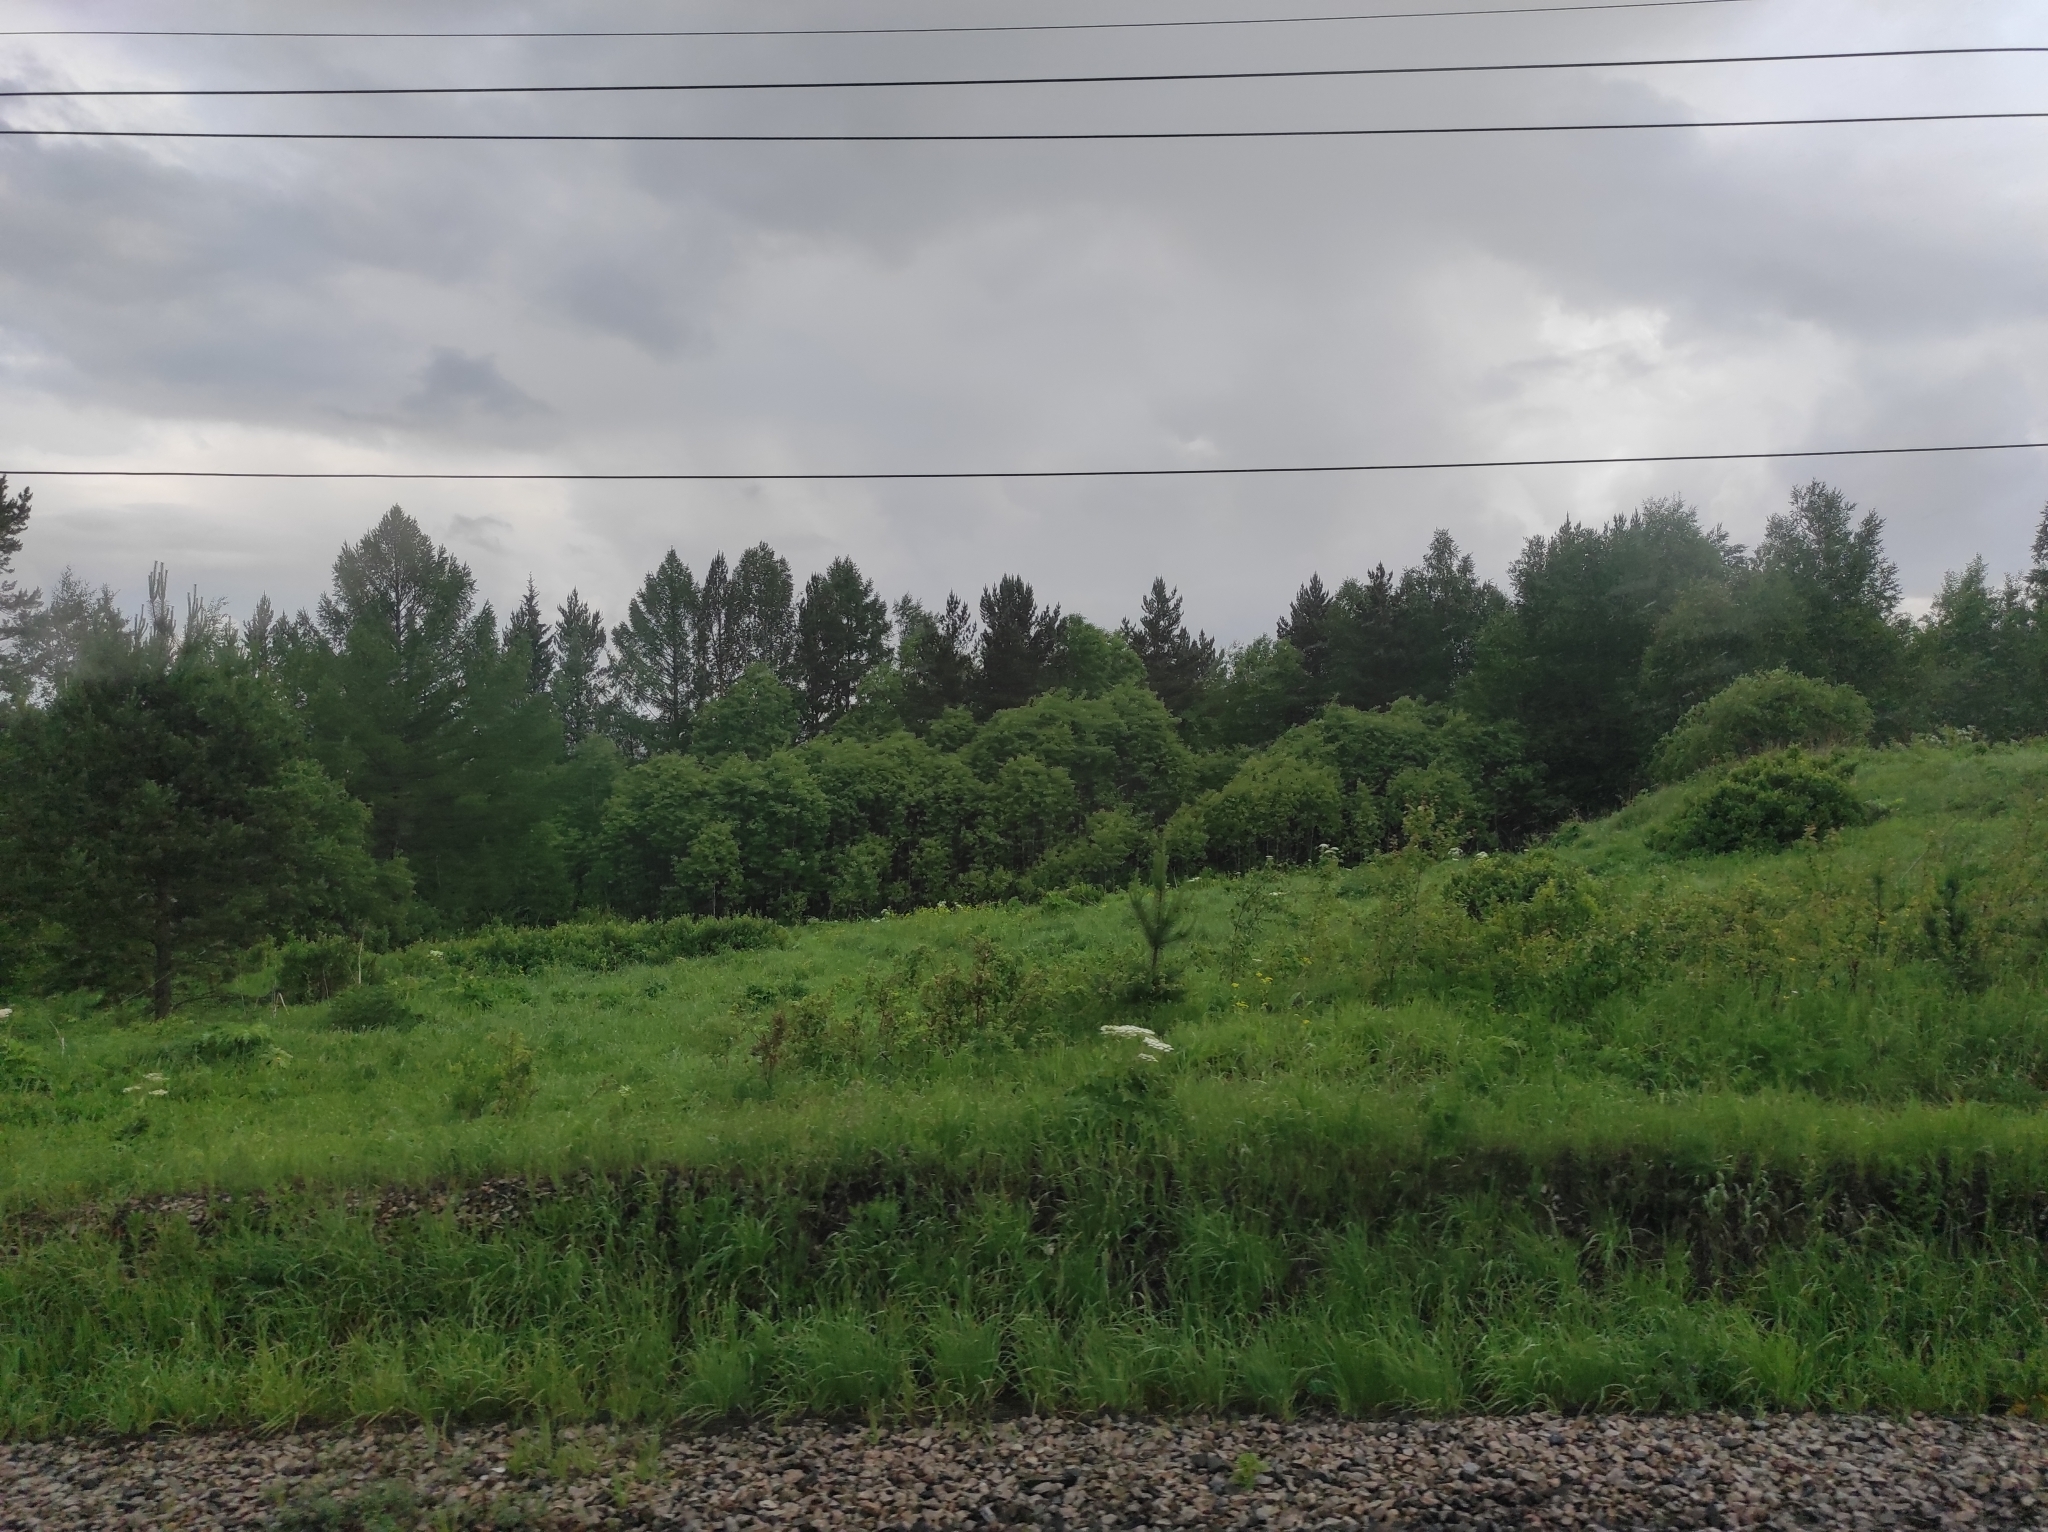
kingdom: Plantae
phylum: Tracheophyta
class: Pinopsida
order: Pinales
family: Pinaceae
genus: Pinus
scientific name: Pinus sylvestris
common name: Scots pine
